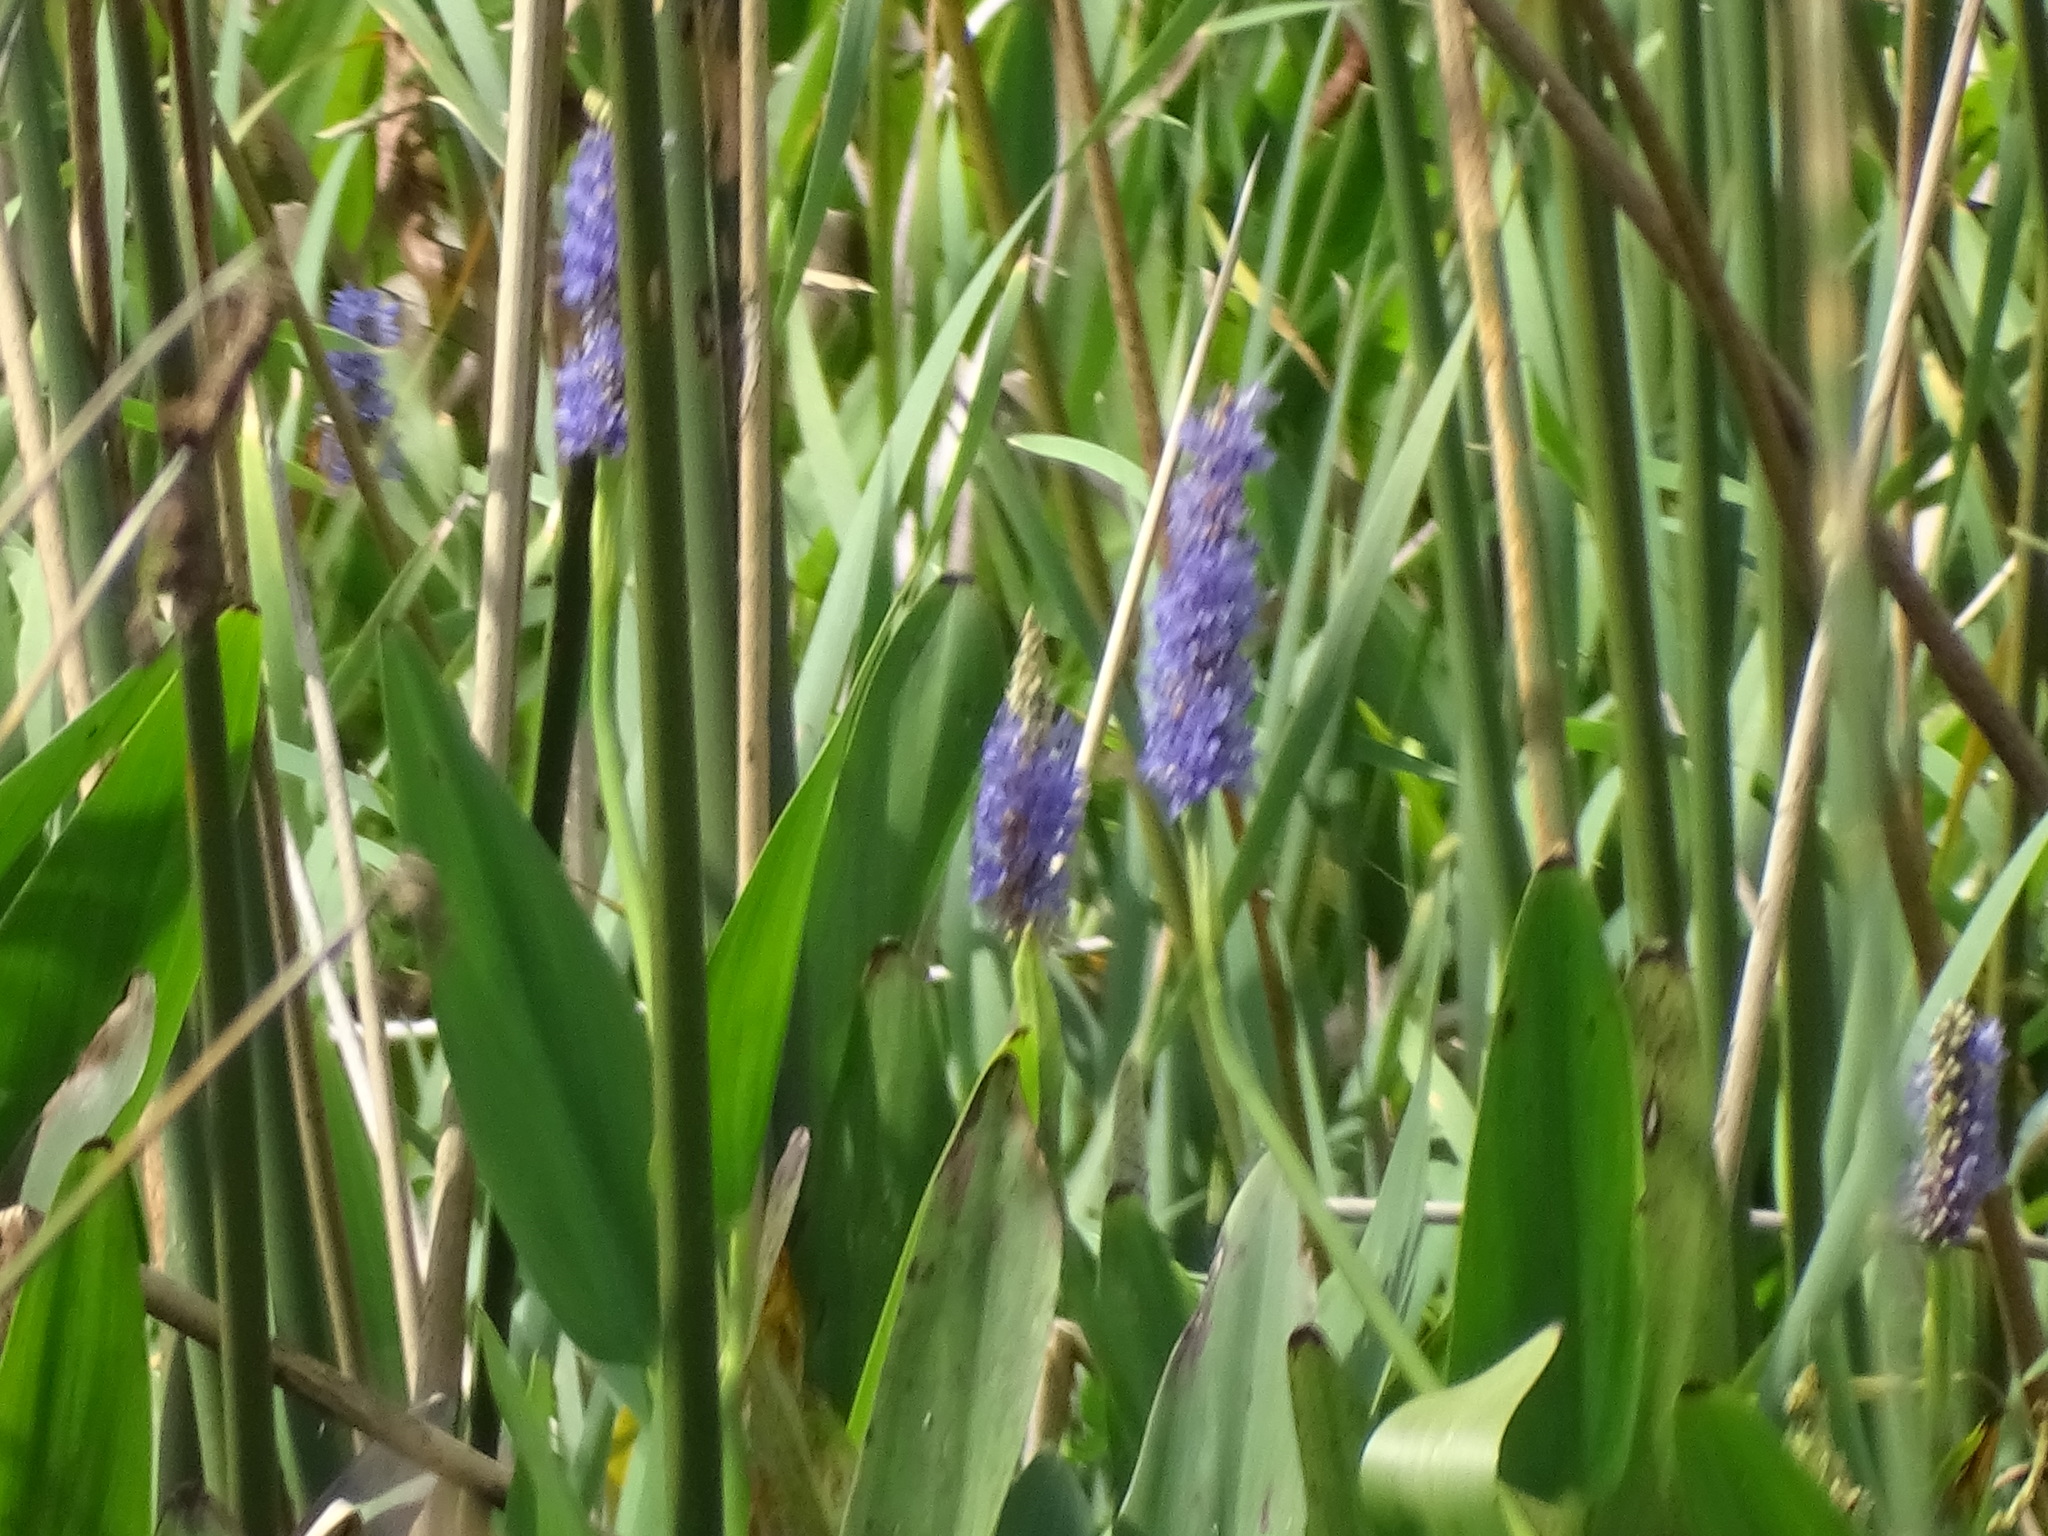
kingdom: Plantae
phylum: Tracheophyta
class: Liliopsida
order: Commelinales
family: Pontederiaceae
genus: Pontederia
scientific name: Pontederia cordata
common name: Pickerelweed
